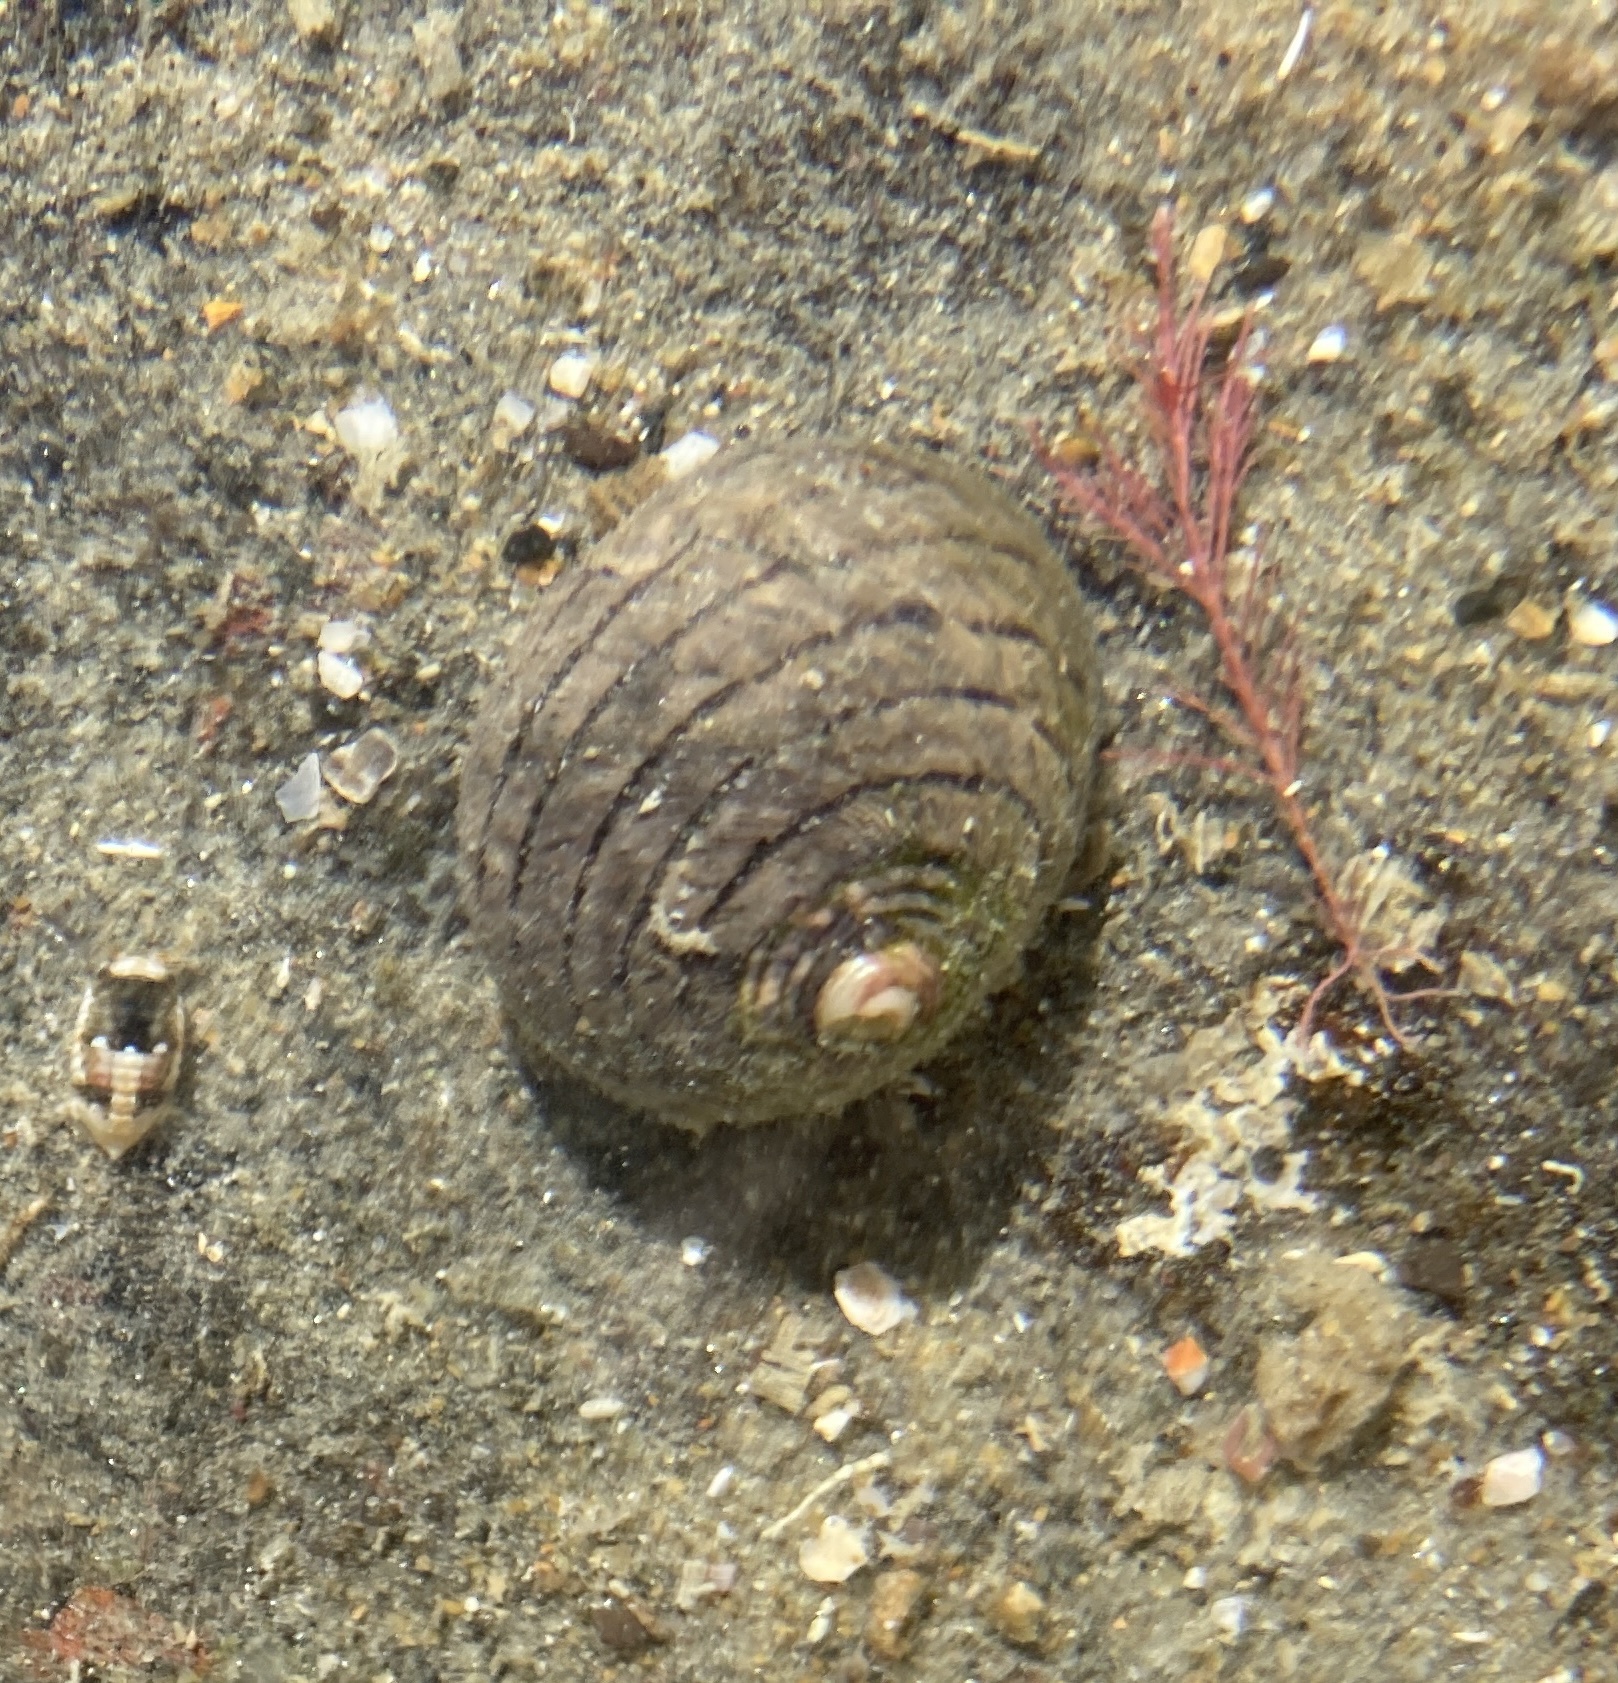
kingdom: Animalia
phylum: Mollusca
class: Gastropoda
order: Trochida
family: Trochidae
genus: Diloma
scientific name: Diloma aethiops
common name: Scorched monodont
